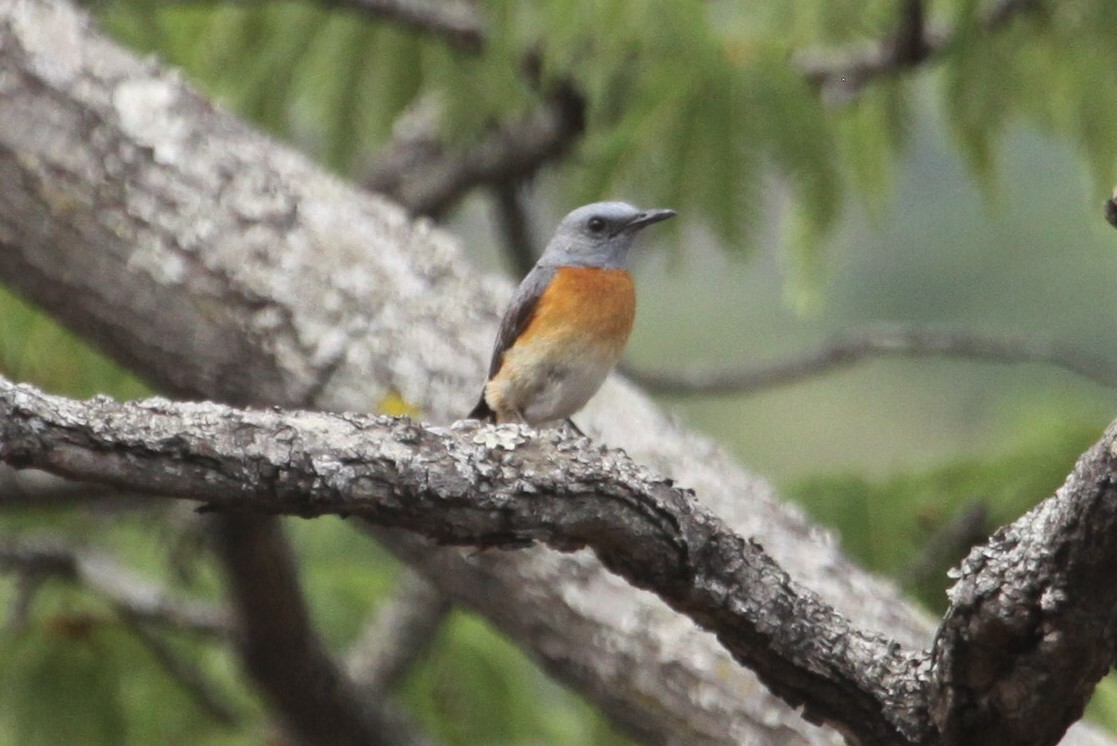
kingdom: Animalia
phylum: Chordata
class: Aves
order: Passeriformes
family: Muscicapidae
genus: Monticola
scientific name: Monticola angolensis
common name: Miombo rock thrush
